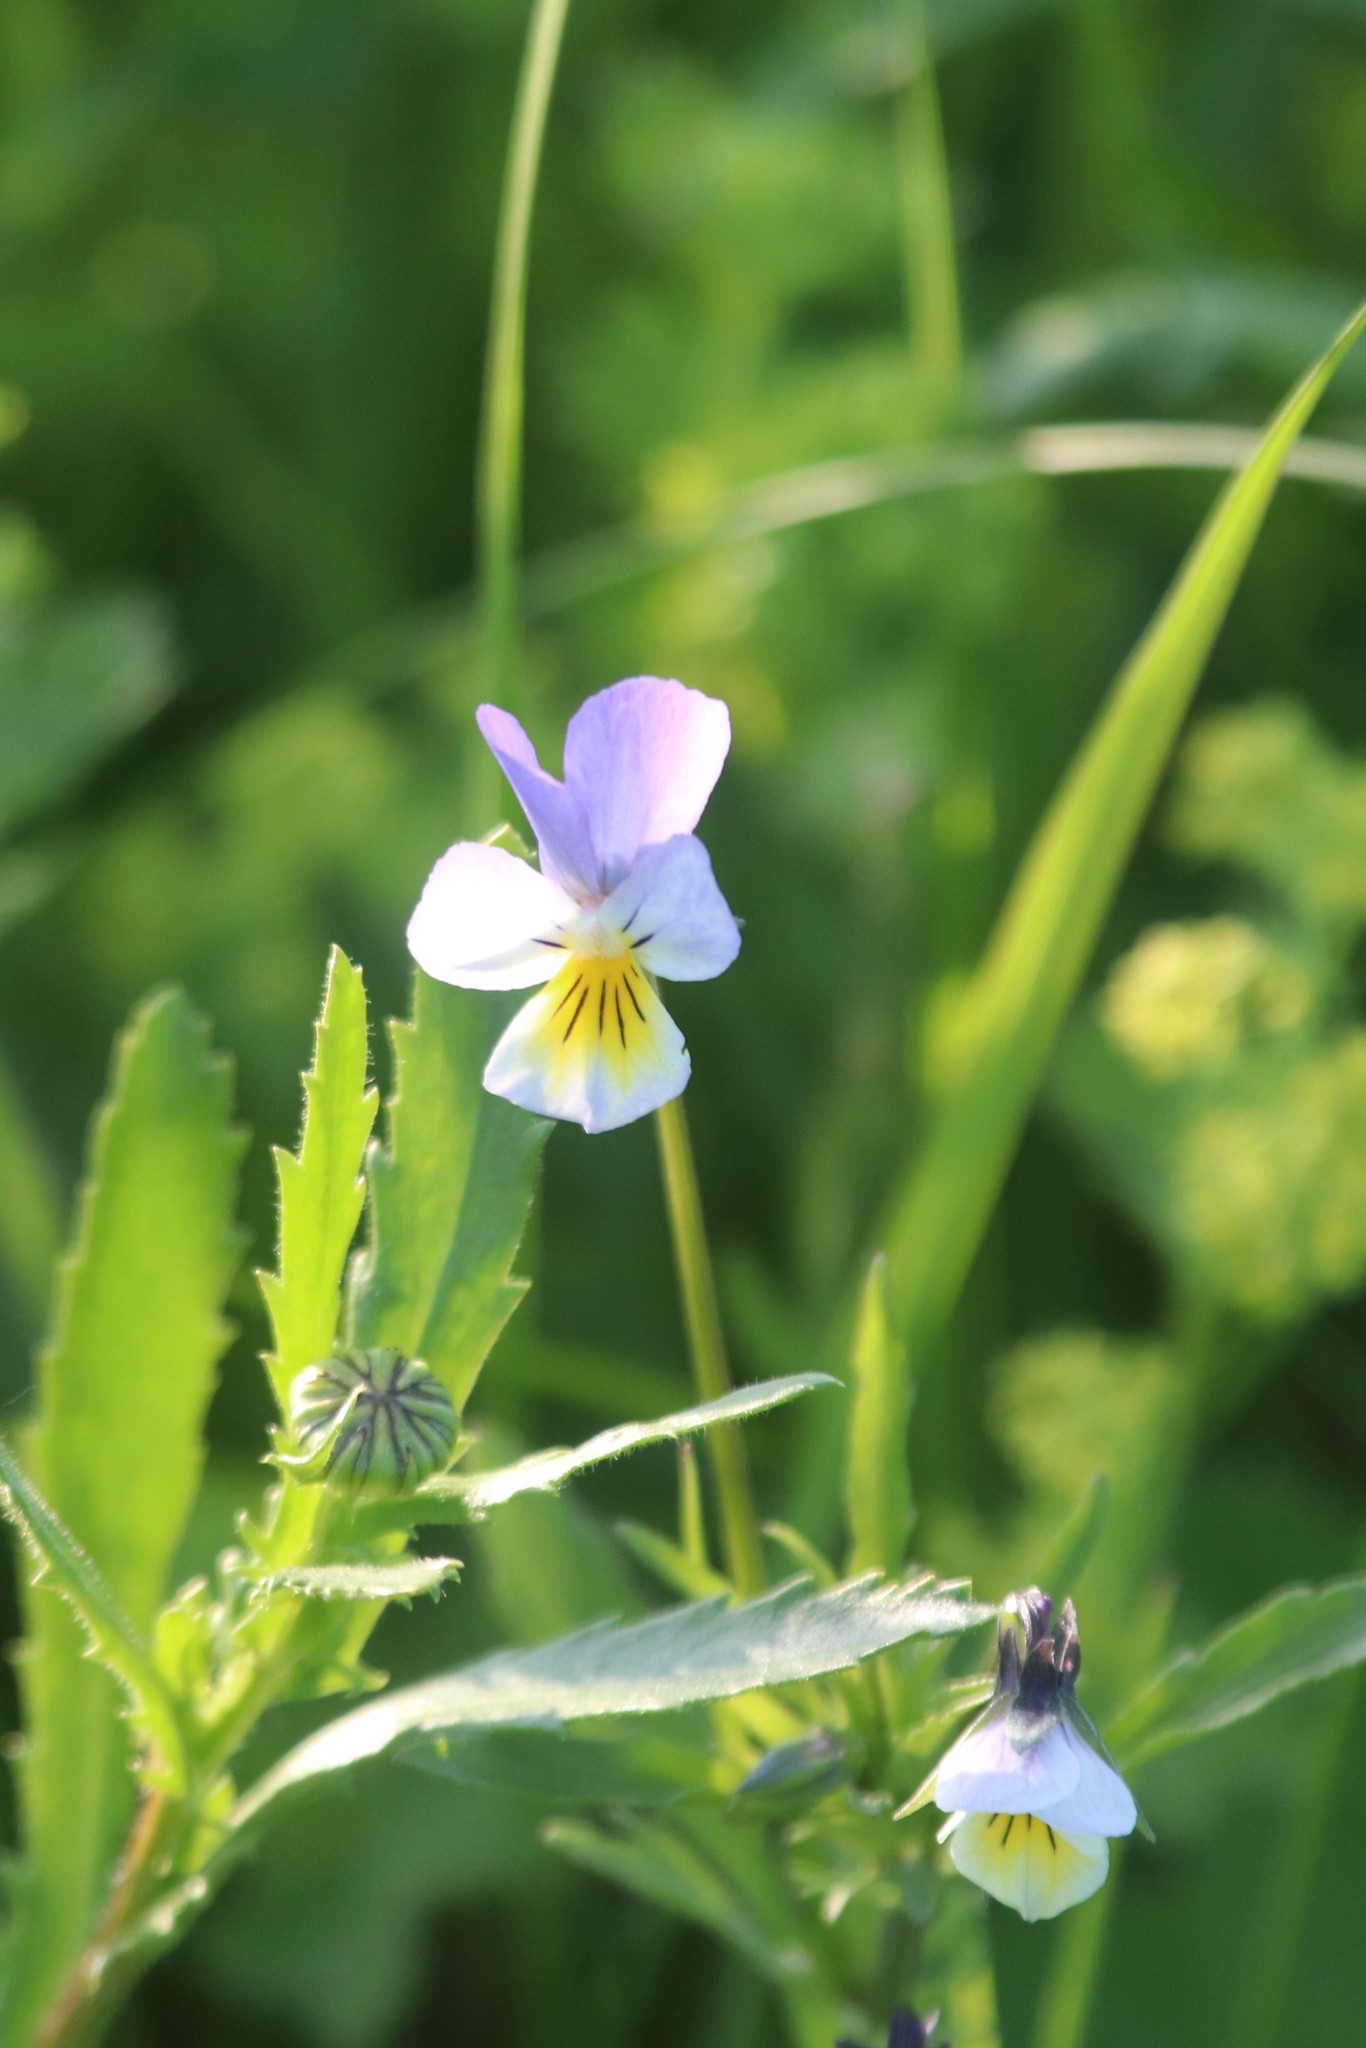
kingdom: Plantae
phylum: Tracheophyta
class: Magnoliopsida
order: Malpighiales
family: Violaceae
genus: Viola
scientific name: Viola tricolor
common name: Pansy
